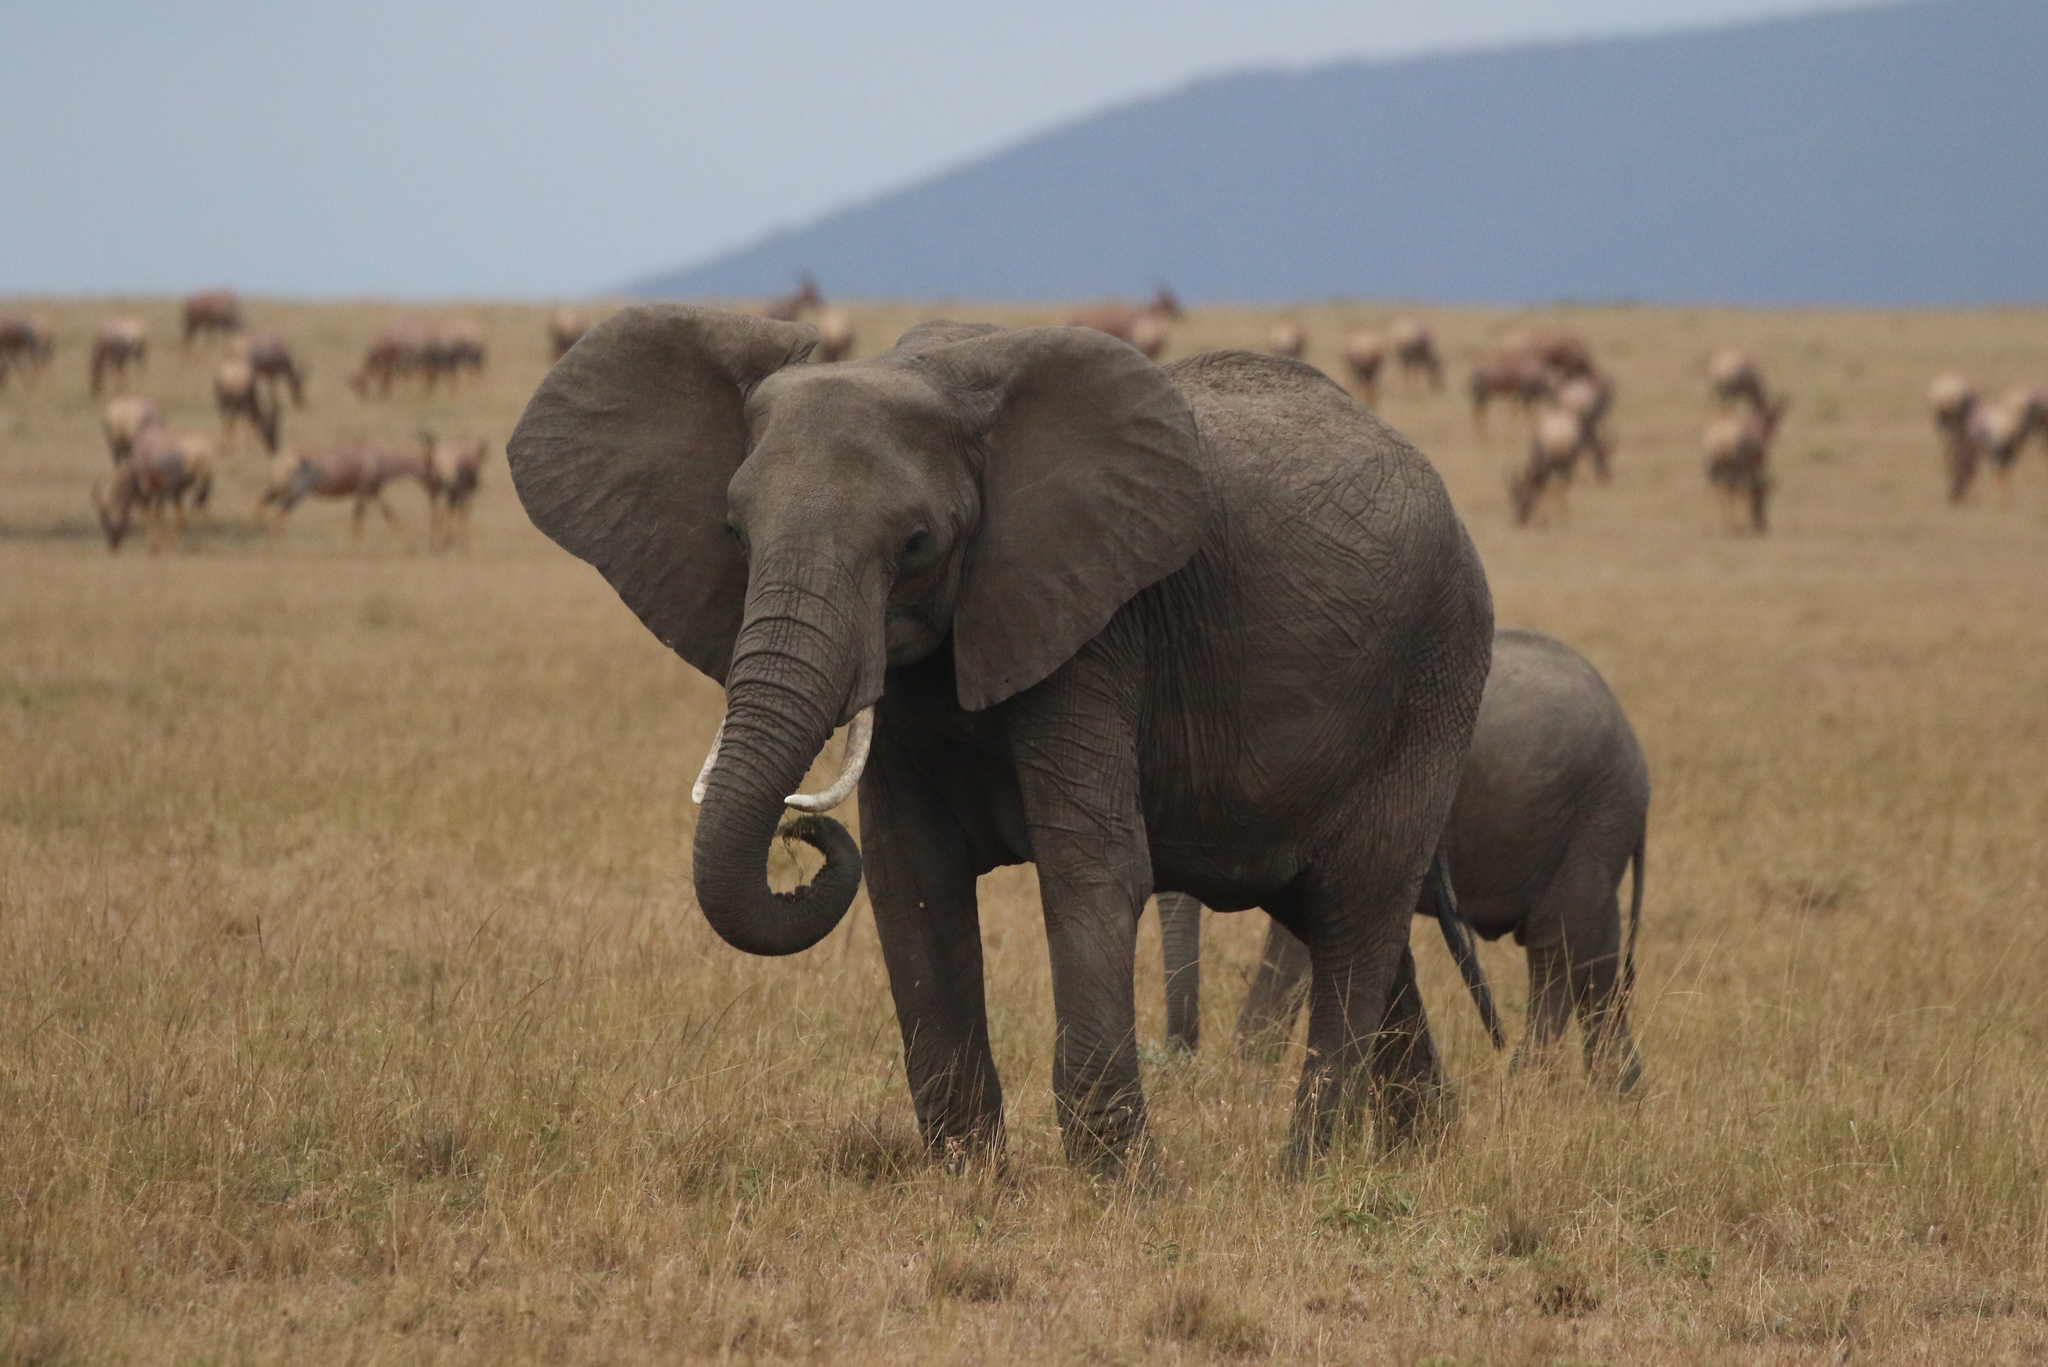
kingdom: Animalia
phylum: Chordata
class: Mammalia
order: Proboscidea
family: Elephantidae
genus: Loxodonta
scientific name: Loxodonta africana
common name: African elephant
